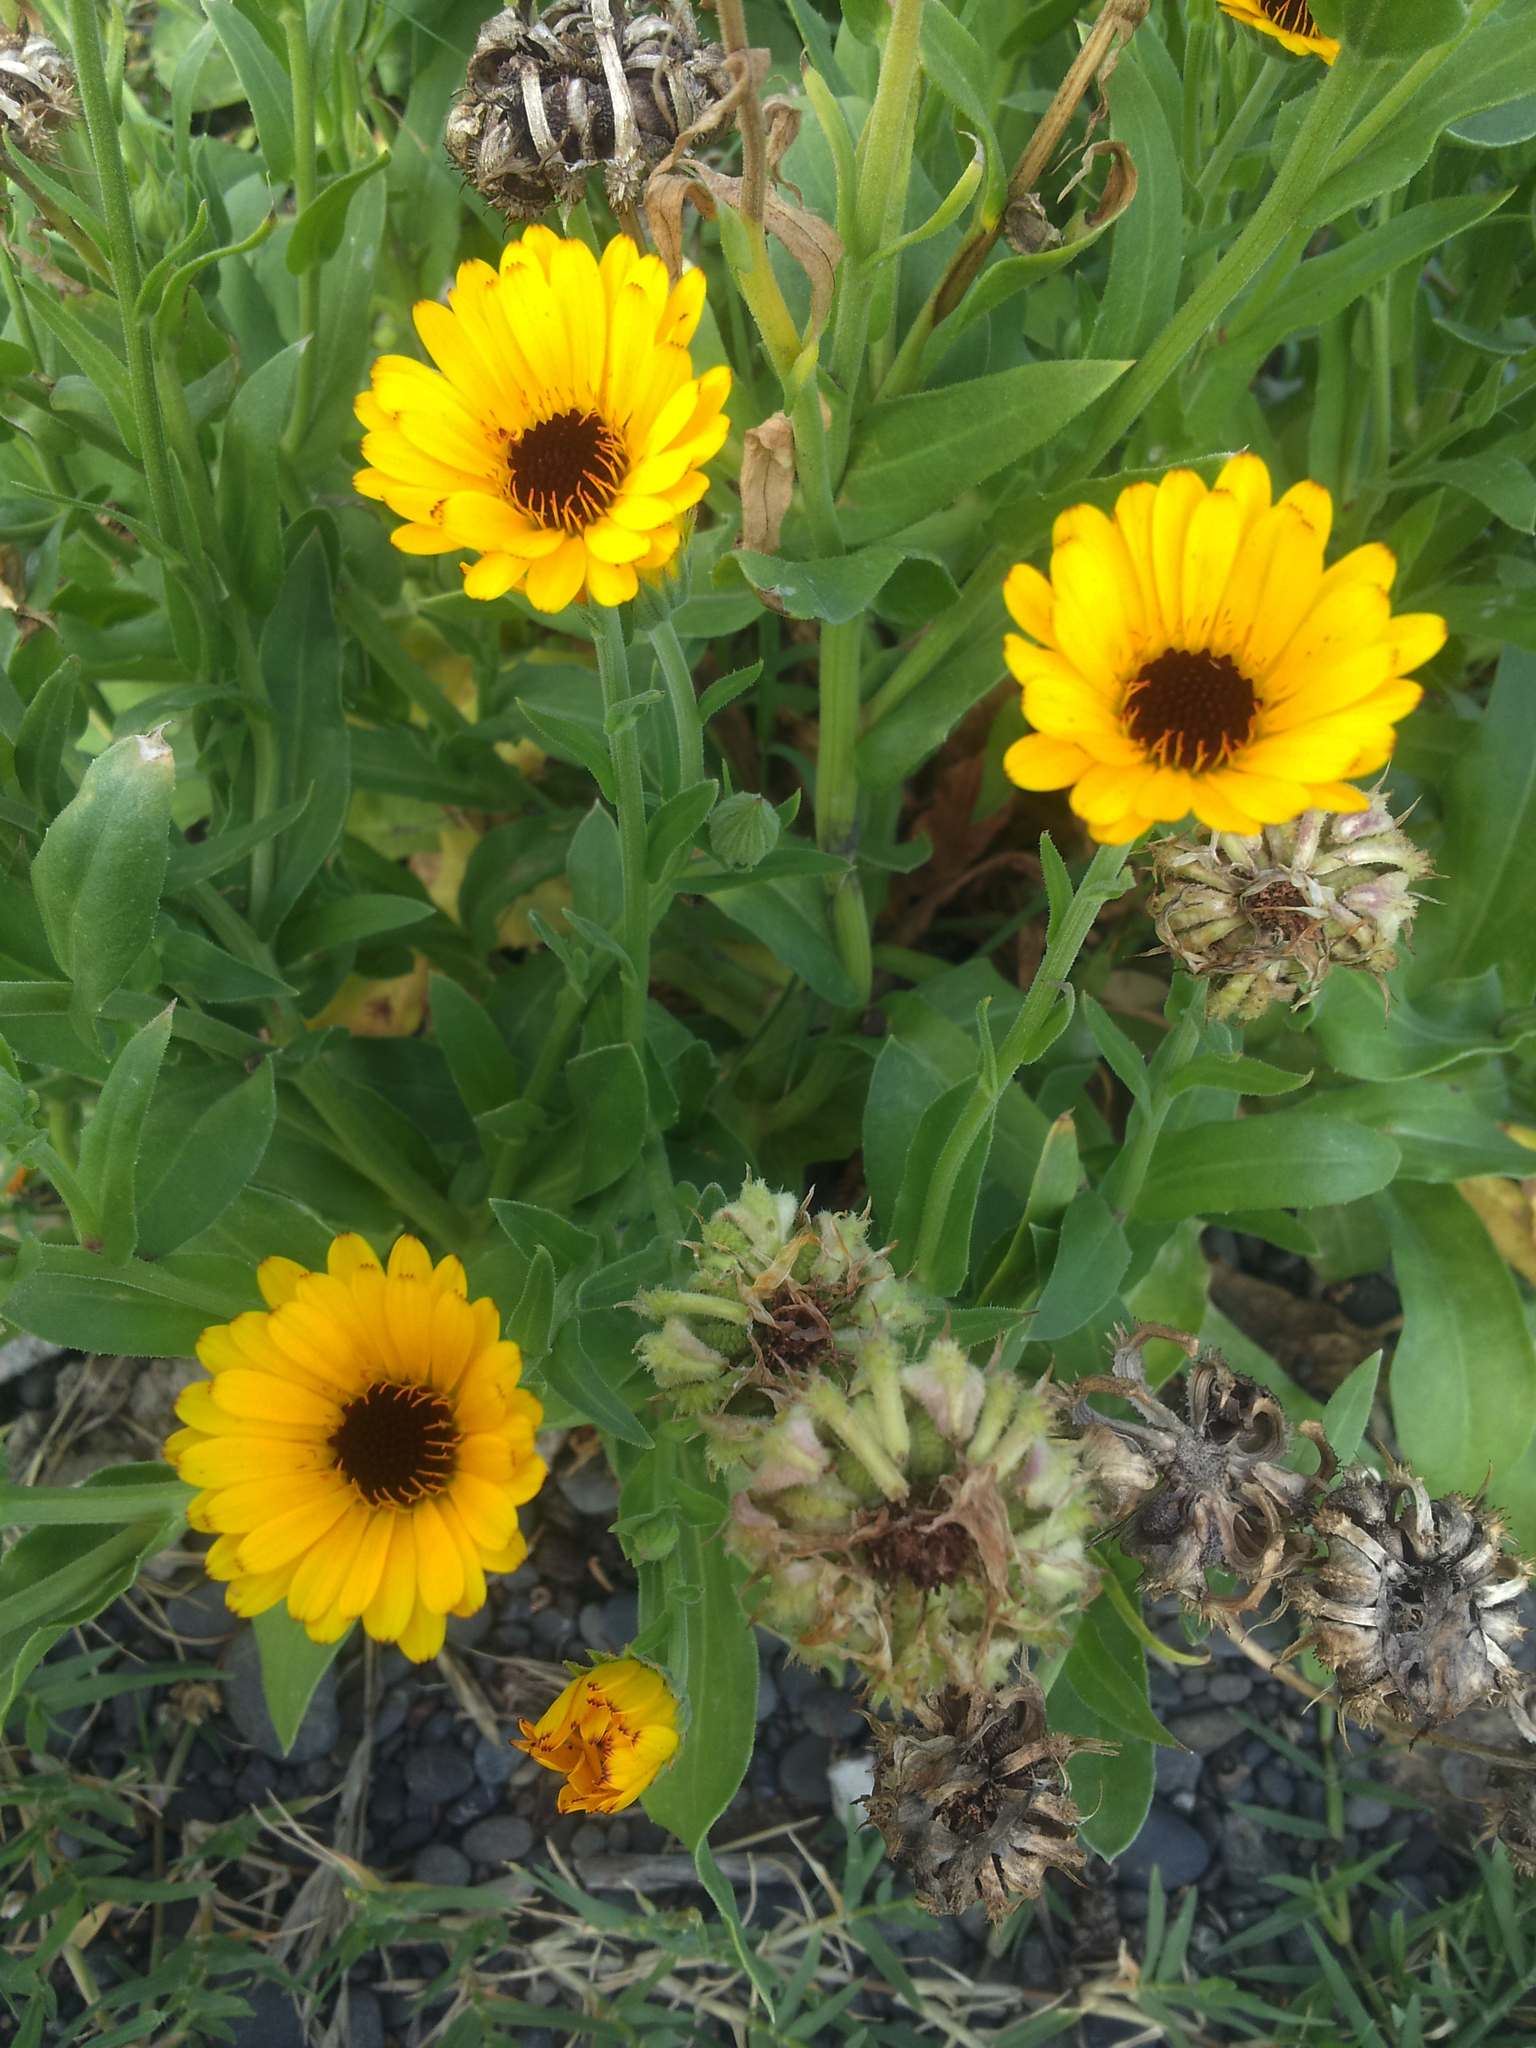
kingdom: Plantae
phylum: Tracheophyta
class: Magnoliopsida
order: Asterales
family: Asteraceae
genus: Calendula
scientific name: Calendula officinalis
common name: Pot marigold
